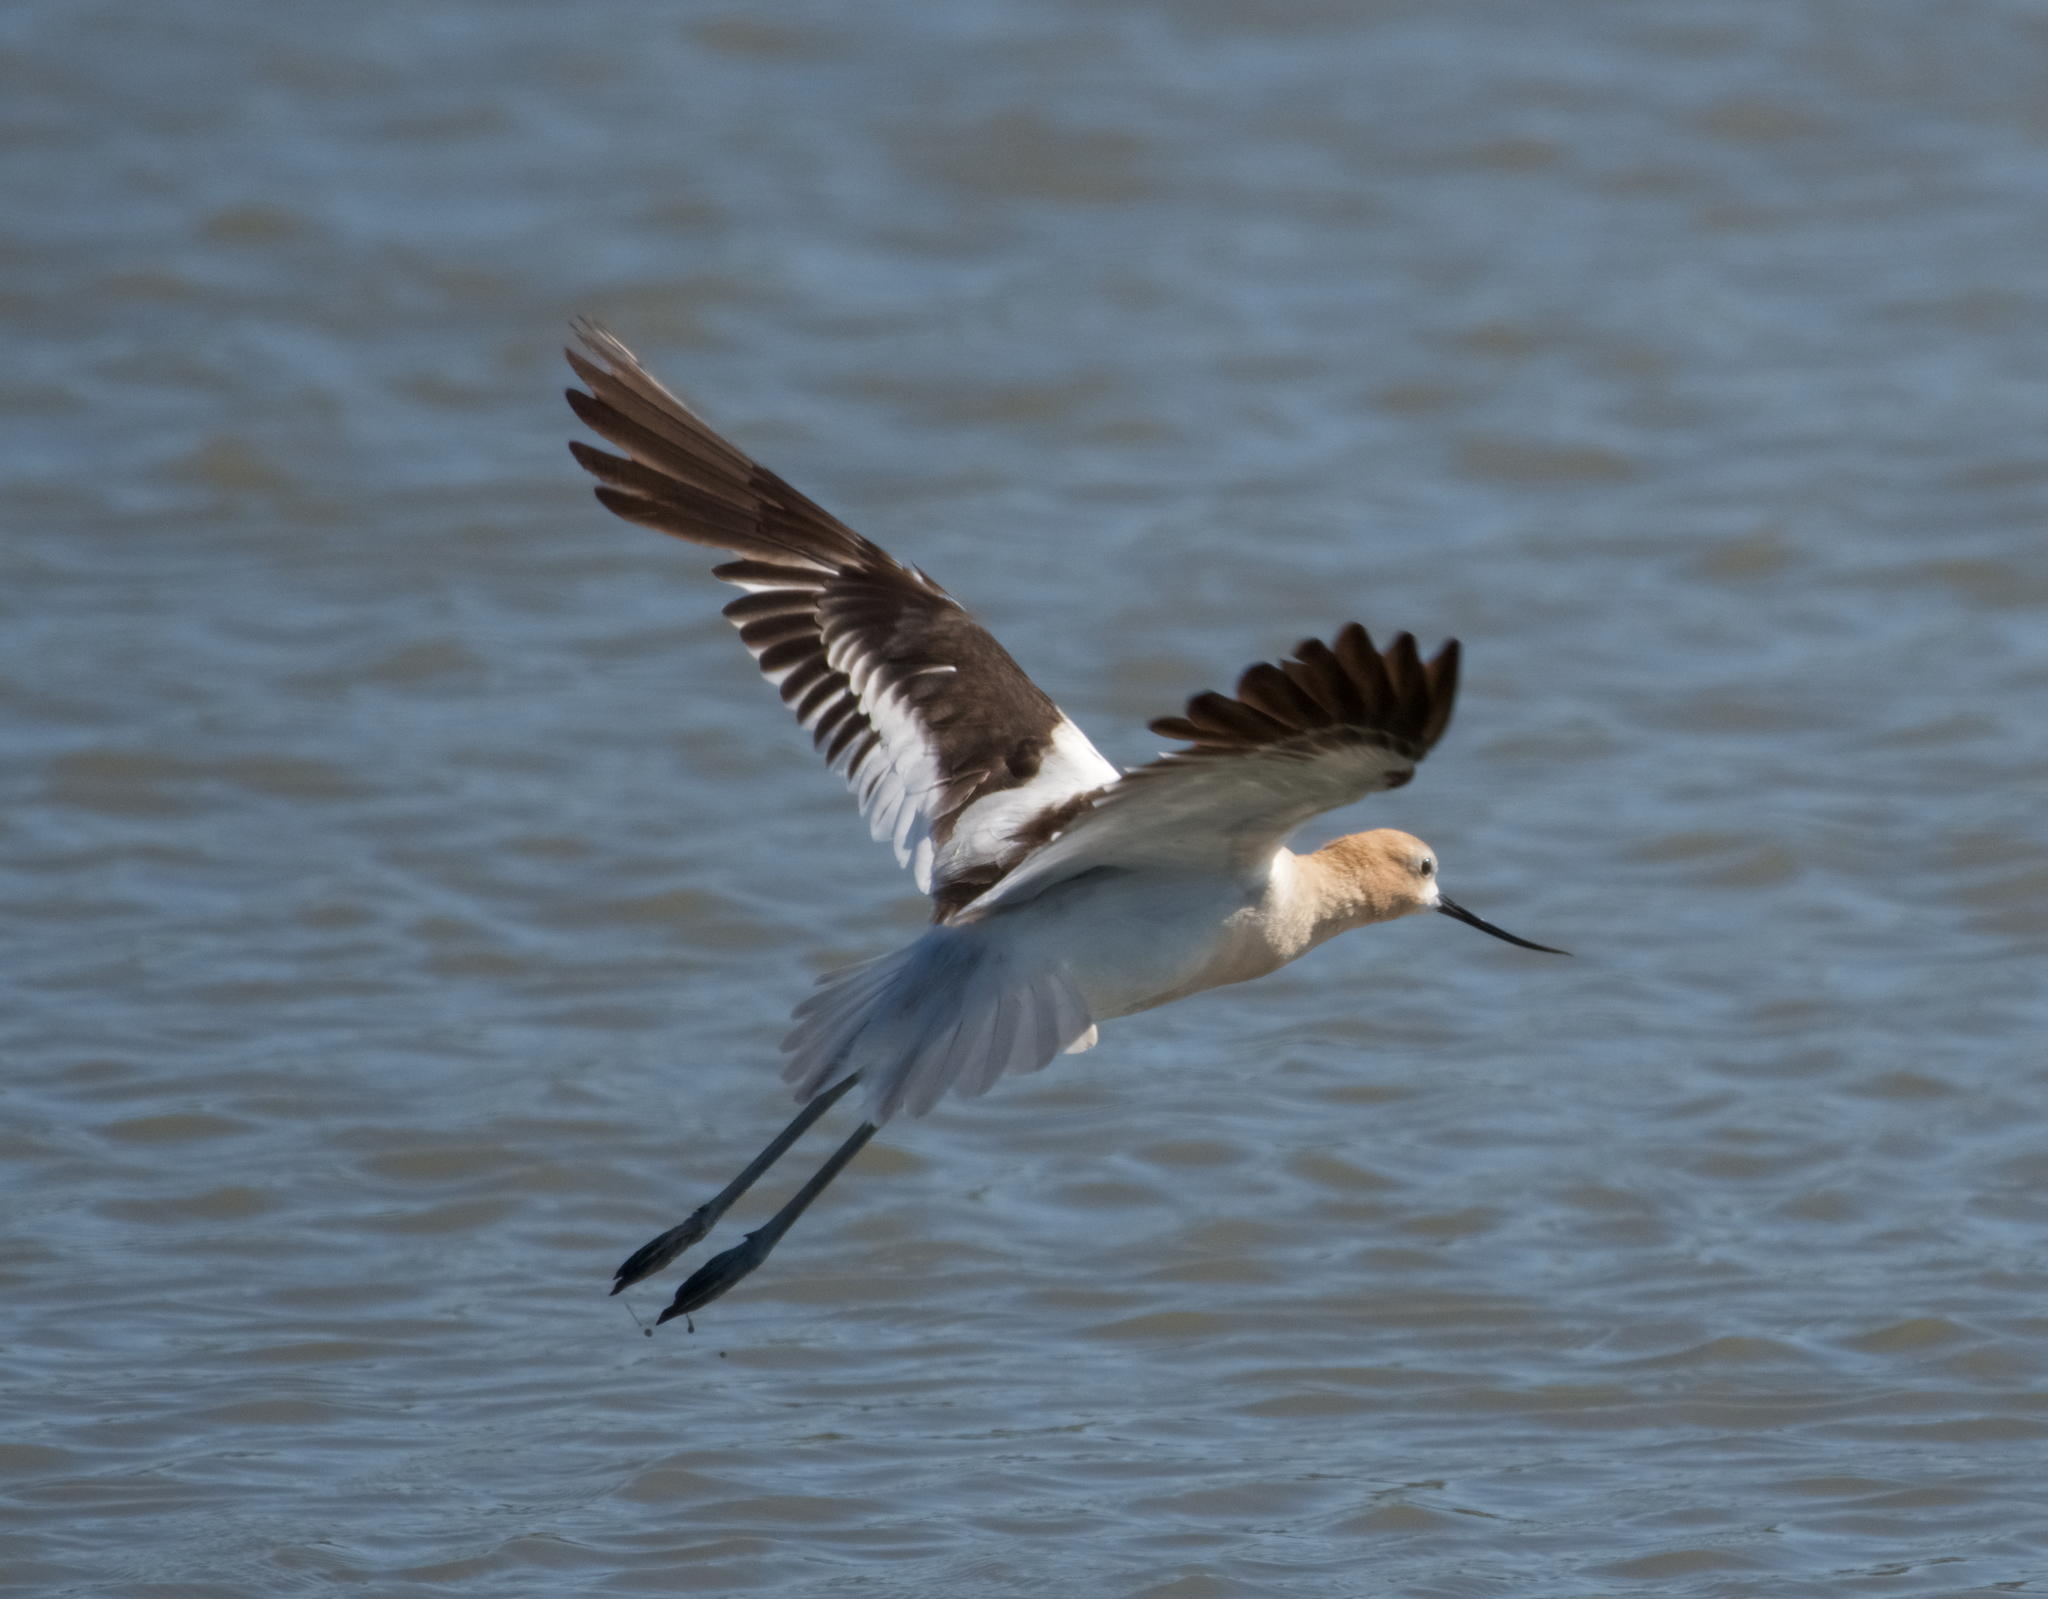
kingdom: Animalia
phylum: Chordata
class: Aves
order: Charadriiformes
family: Recurvirostridae
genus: Recurvirostra
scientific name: Recurvirostra americana
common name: American avocet
